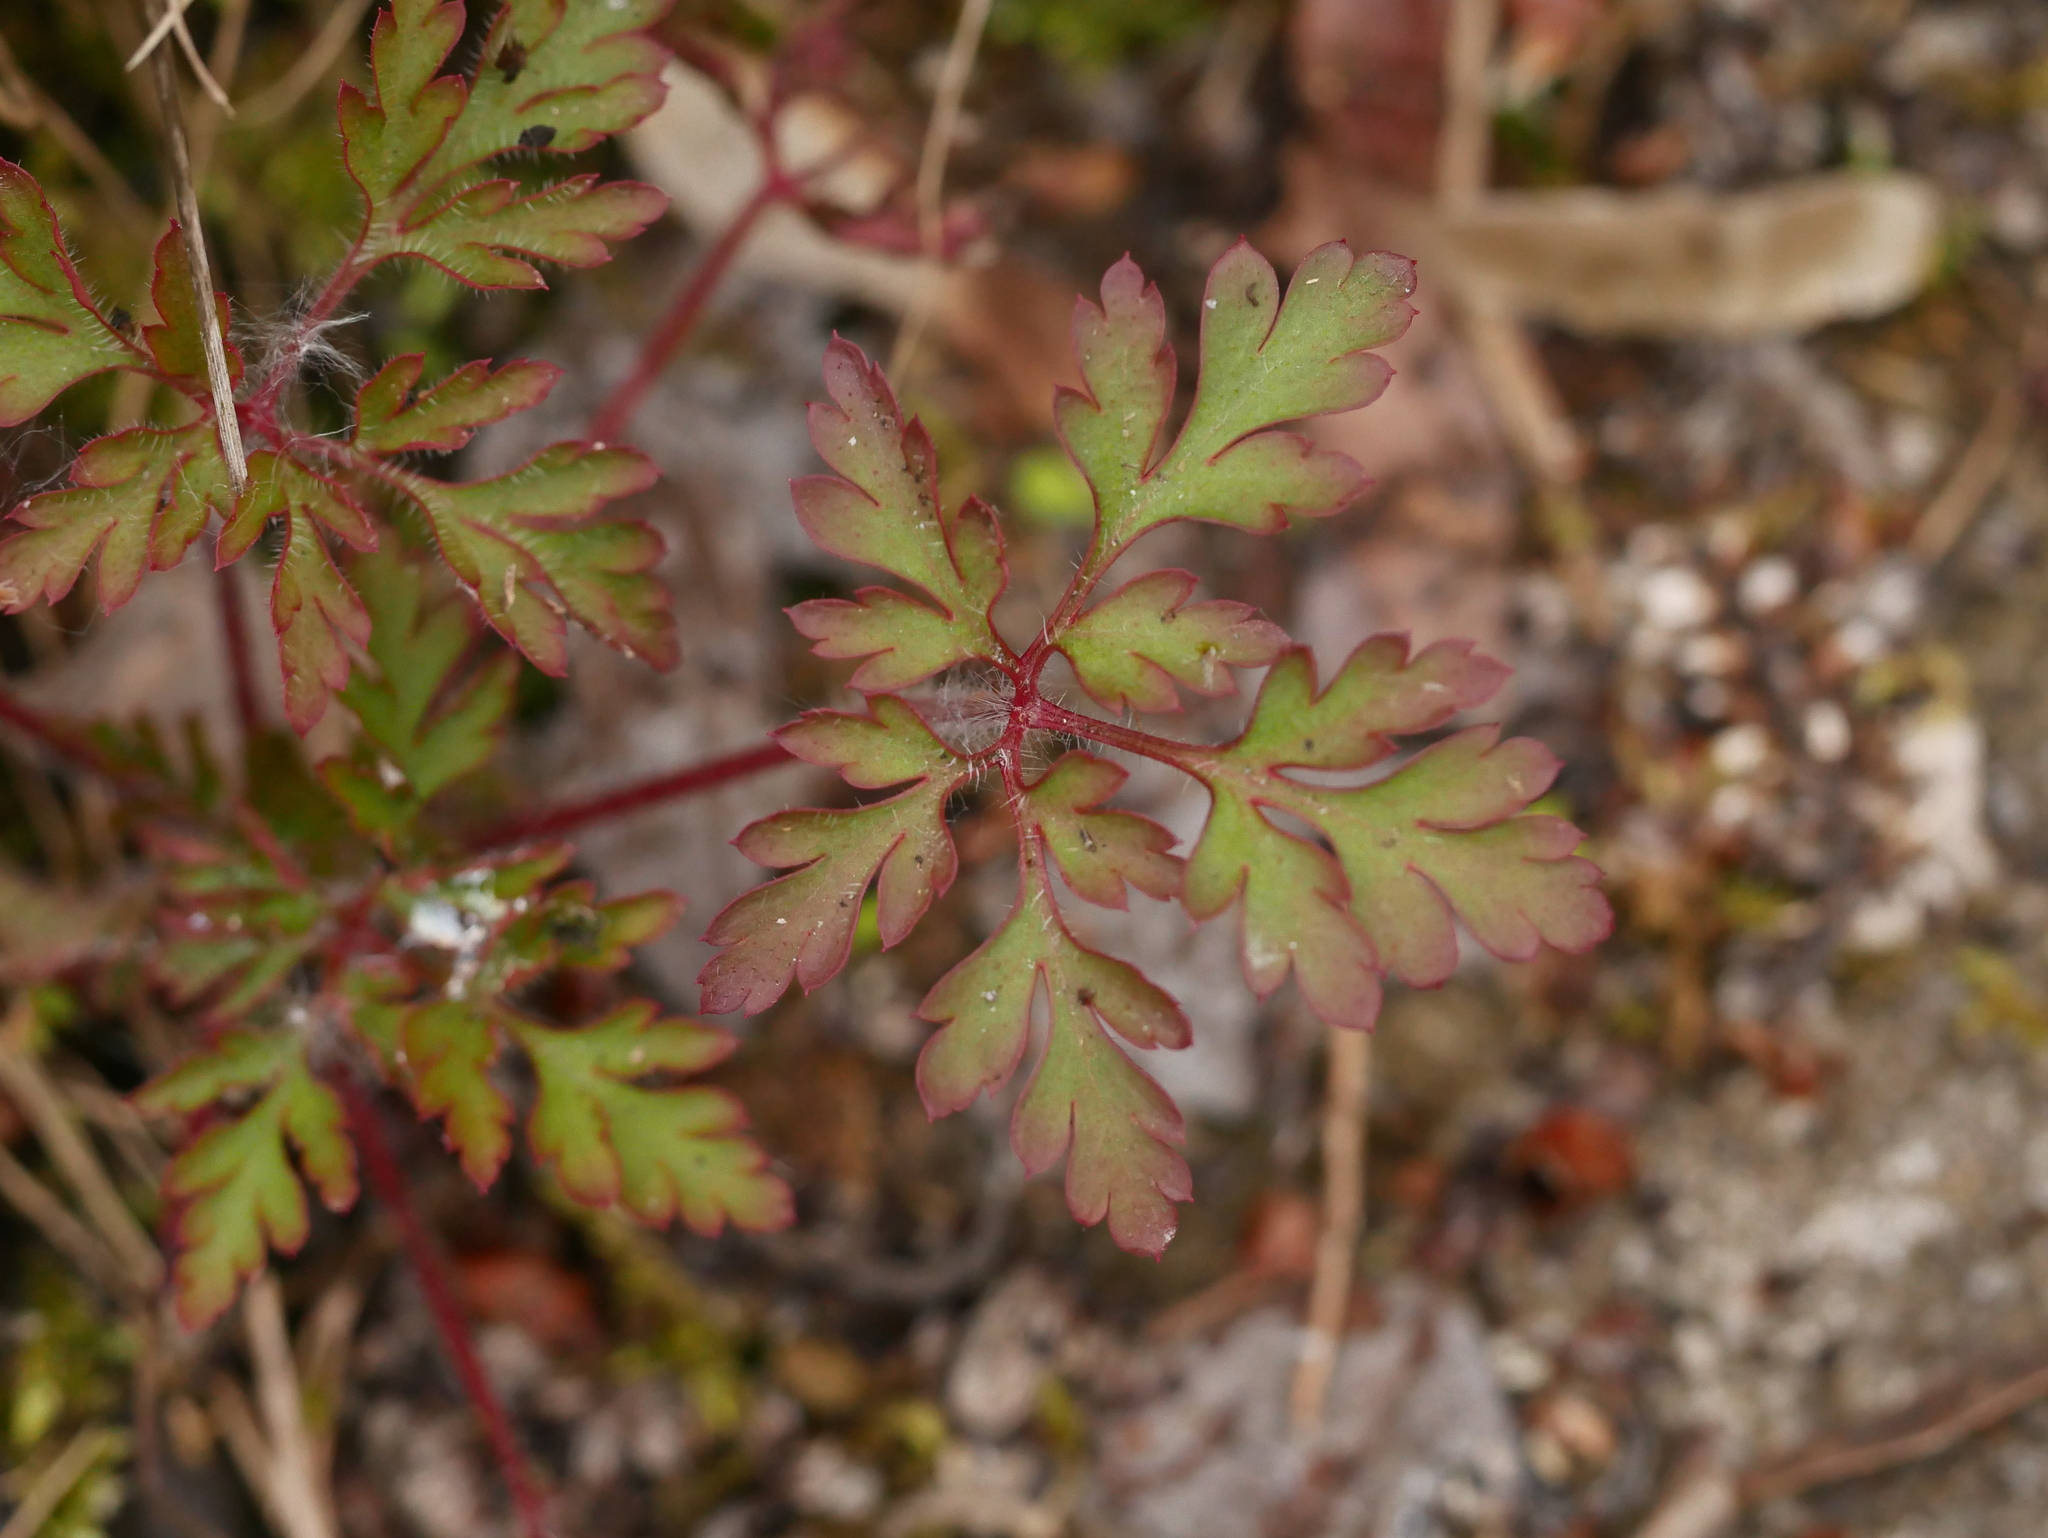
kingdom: Plantae
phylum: Tracheophyta
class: Magnoliopsida
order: Geraniales
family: Geraniaceae
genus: Geranium
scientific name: Geranium robertianum
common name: Herb-robert
